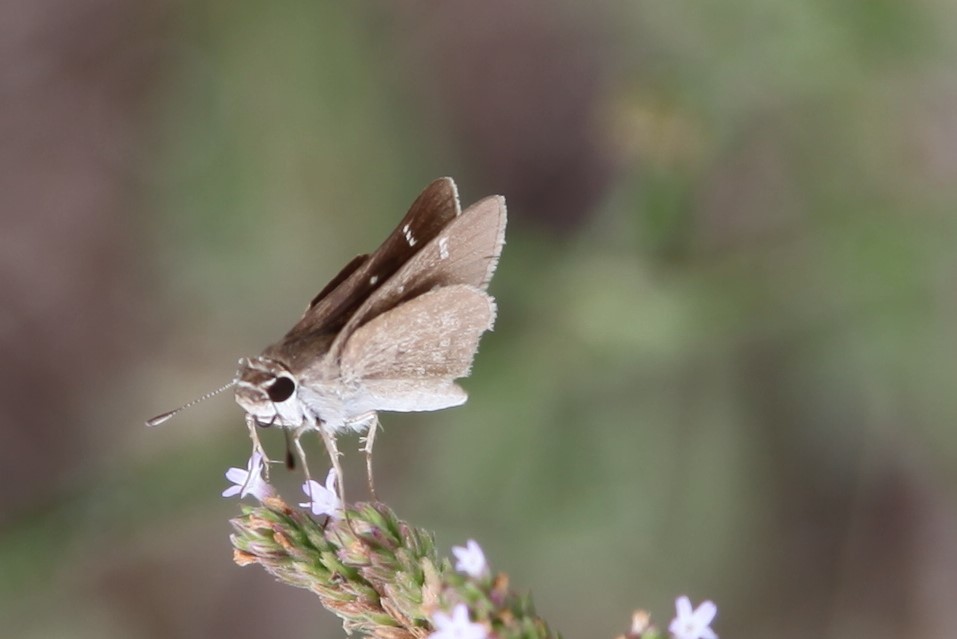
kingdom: Animalia
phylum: Arthropoda
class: Insecta
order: Lepidoptera
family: Hesperiidae
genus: Lerodea
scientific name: Lerodea eufala
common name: Eufala skipper
